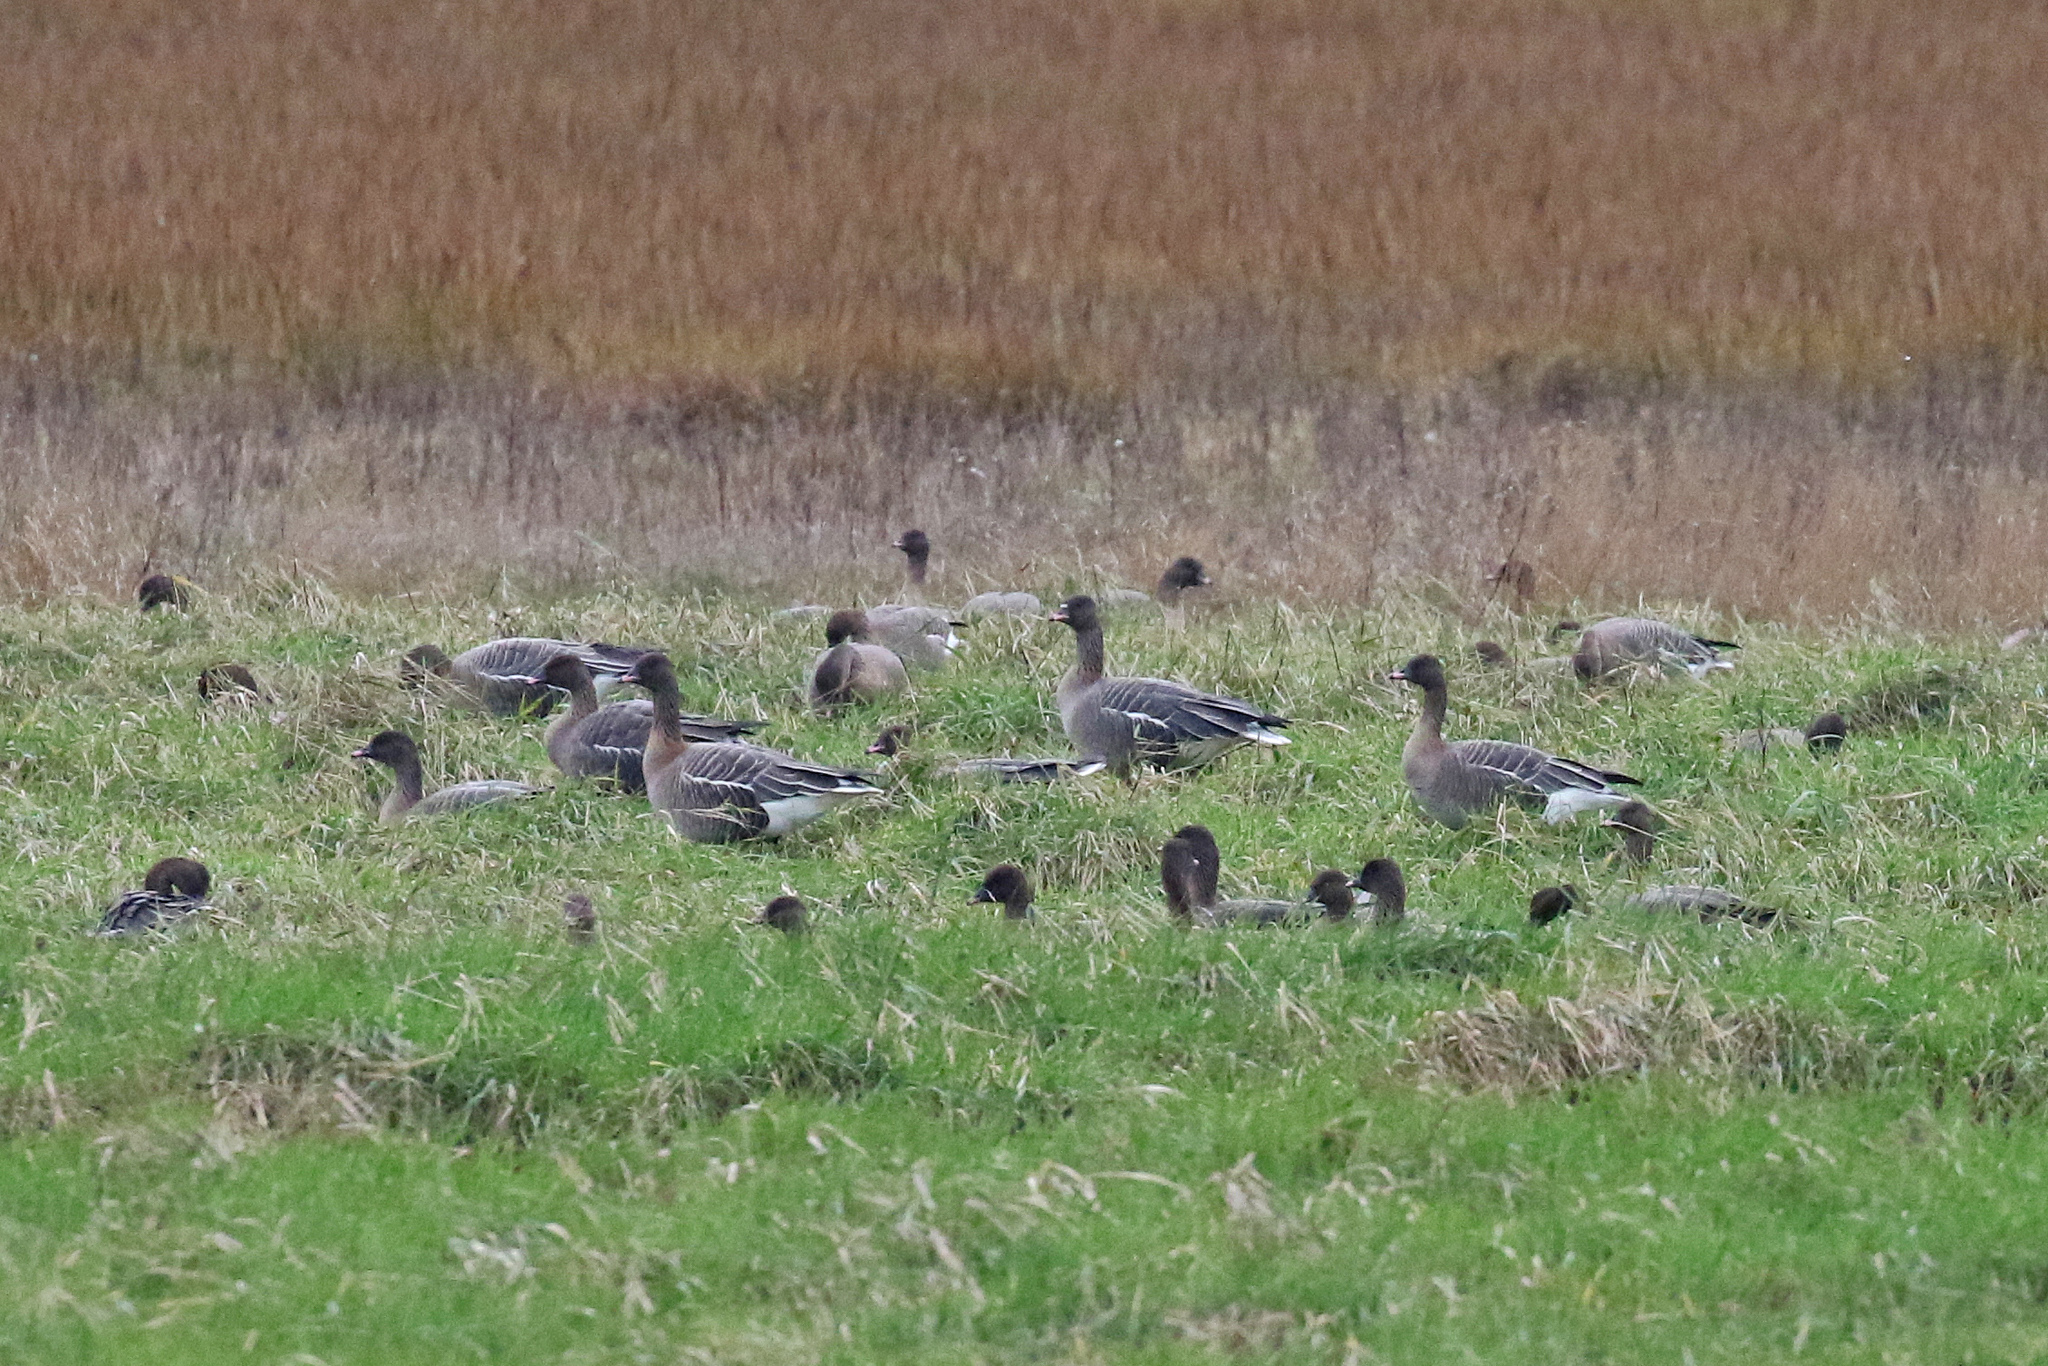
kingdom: Animalia
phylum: Chordata
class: Aves
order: Anseriformes
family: Anatidae
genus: Anser
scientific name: Anser brachyrhynchus
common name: Pink-footed goose
